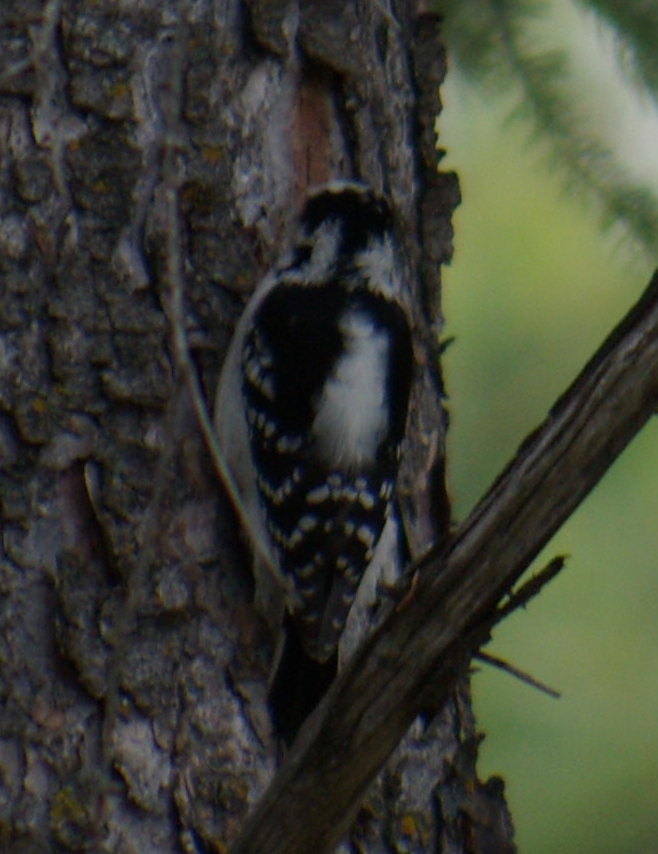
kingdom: Animalia
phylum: Chordata
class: Aves
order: Piciformes
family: Picidae
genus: Dryobates
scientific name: Dryobates pubescens
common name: Downy woodpecker
